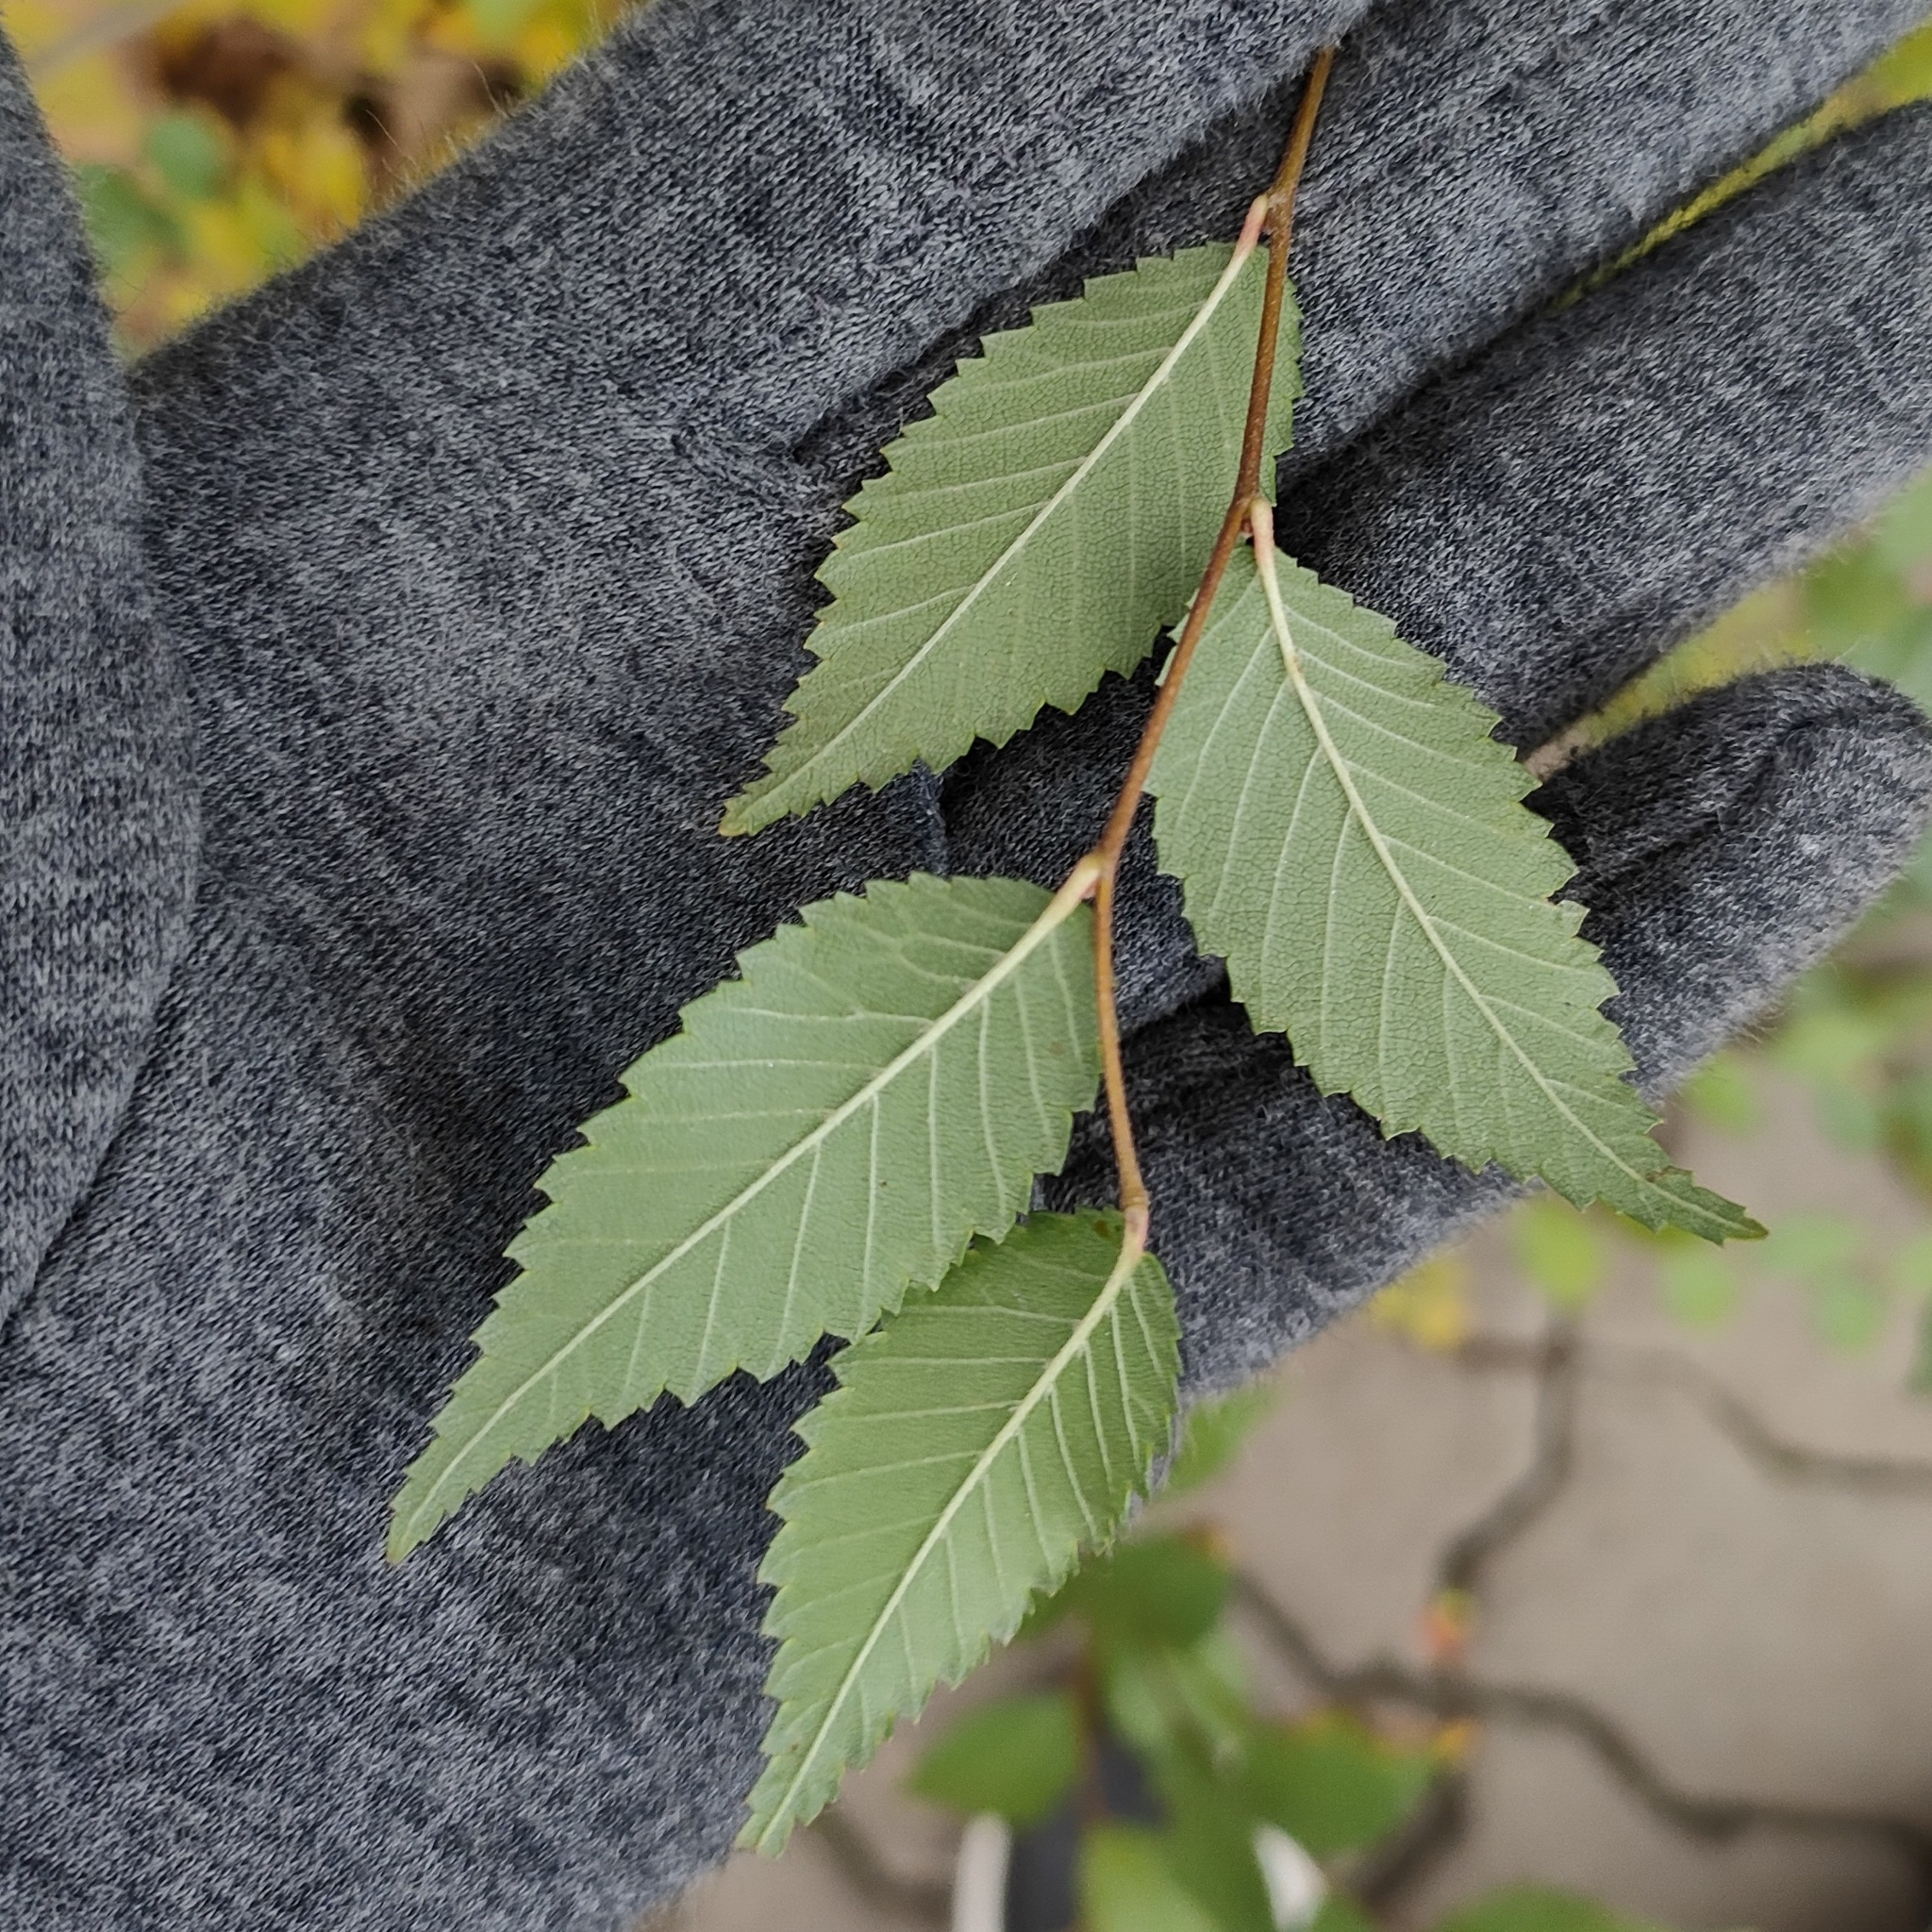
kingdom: Plantae
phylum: Tracheophyta
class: Magnoliopsida
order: Rosales
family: Ulmaceae
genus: Ulmus
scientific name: Ulmus pumila
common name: Siberian elm
